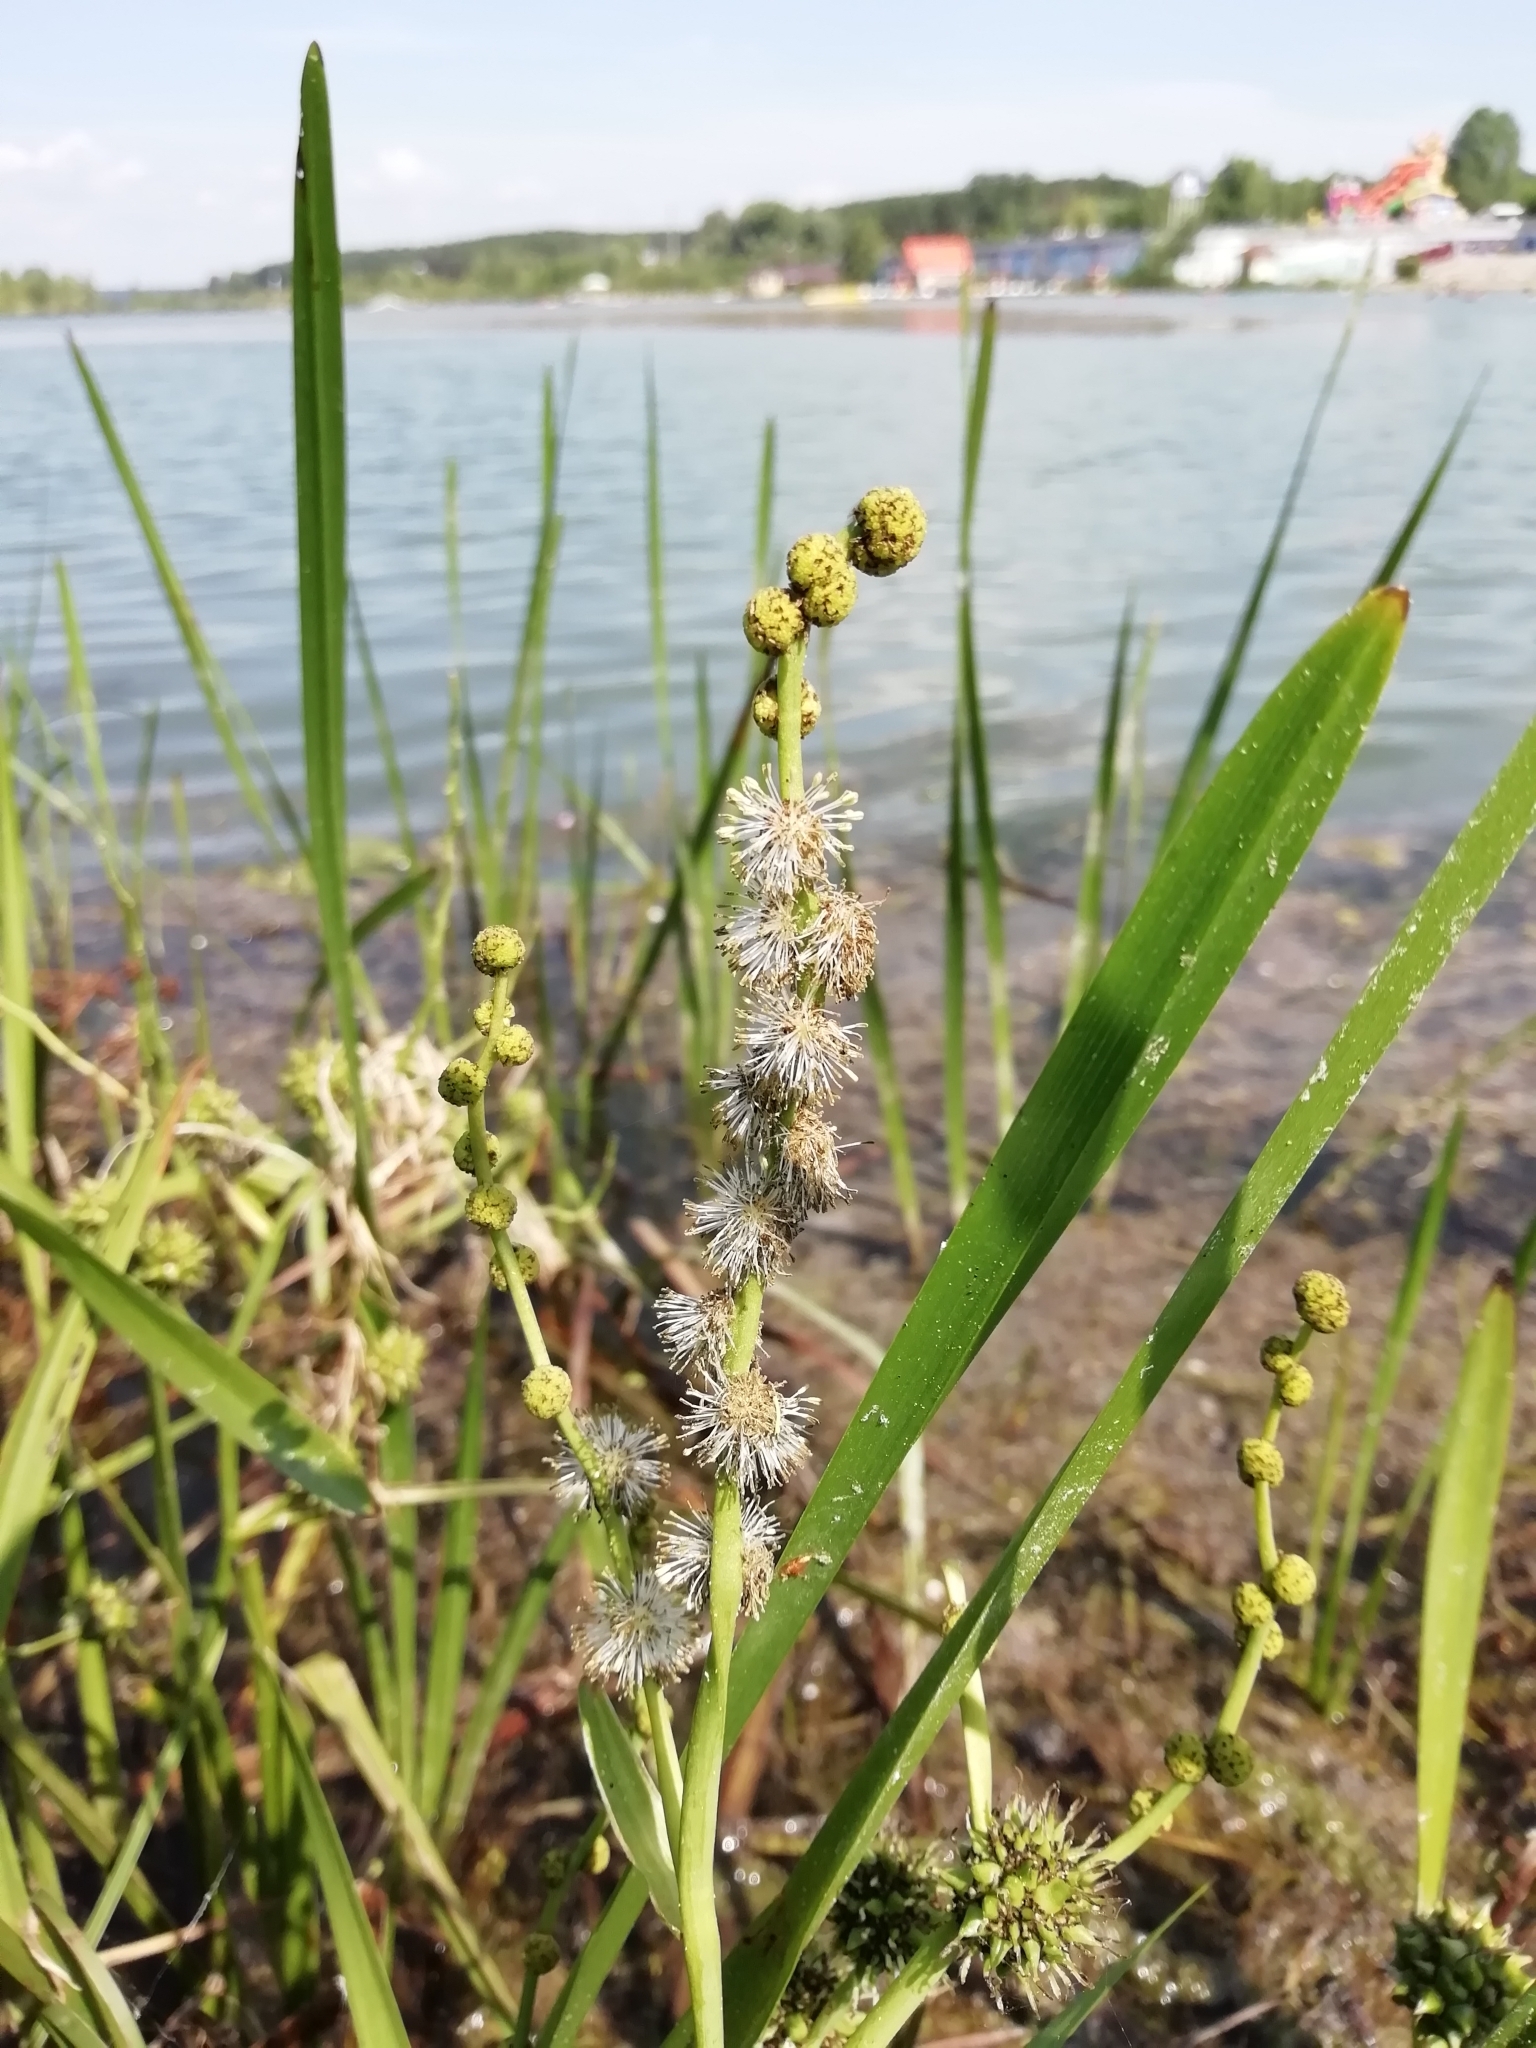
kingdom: Plantae
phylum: Tracheophyta
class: Liliopsida
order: Poales
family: Typhaceae
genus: Sparganium
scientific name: Sparganium erectum
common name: Branched bur-reed
